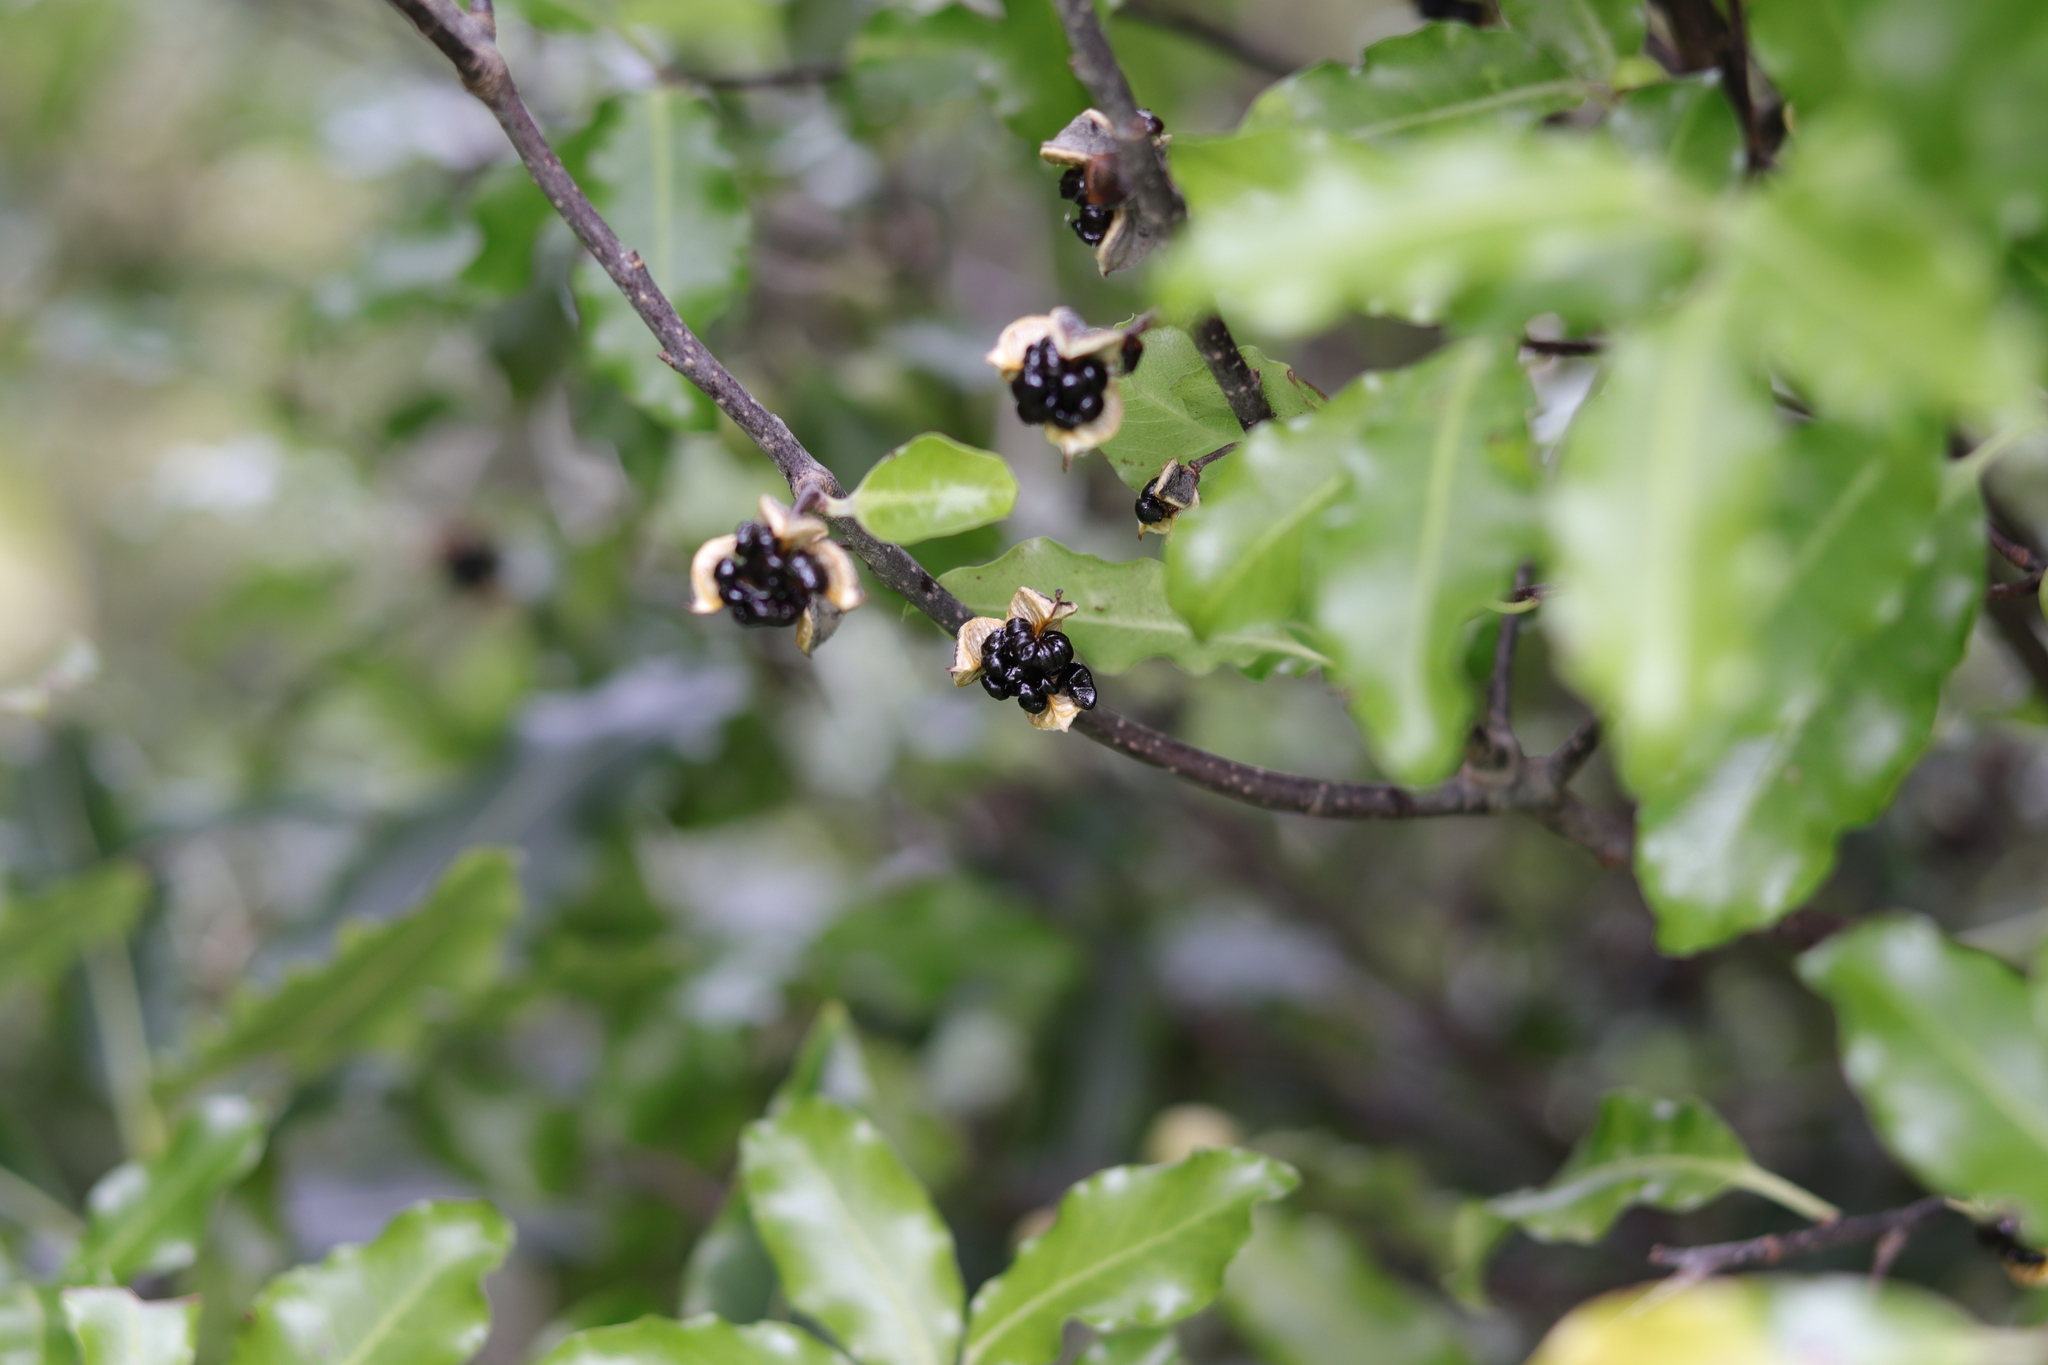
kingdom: Plantae
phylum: Tracheophyta
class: Magnoliopsida
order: Apiales
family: Pittosporaceae
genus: Pittosporum
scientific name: Pittosporum tenuifolium
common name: Kohuhu
